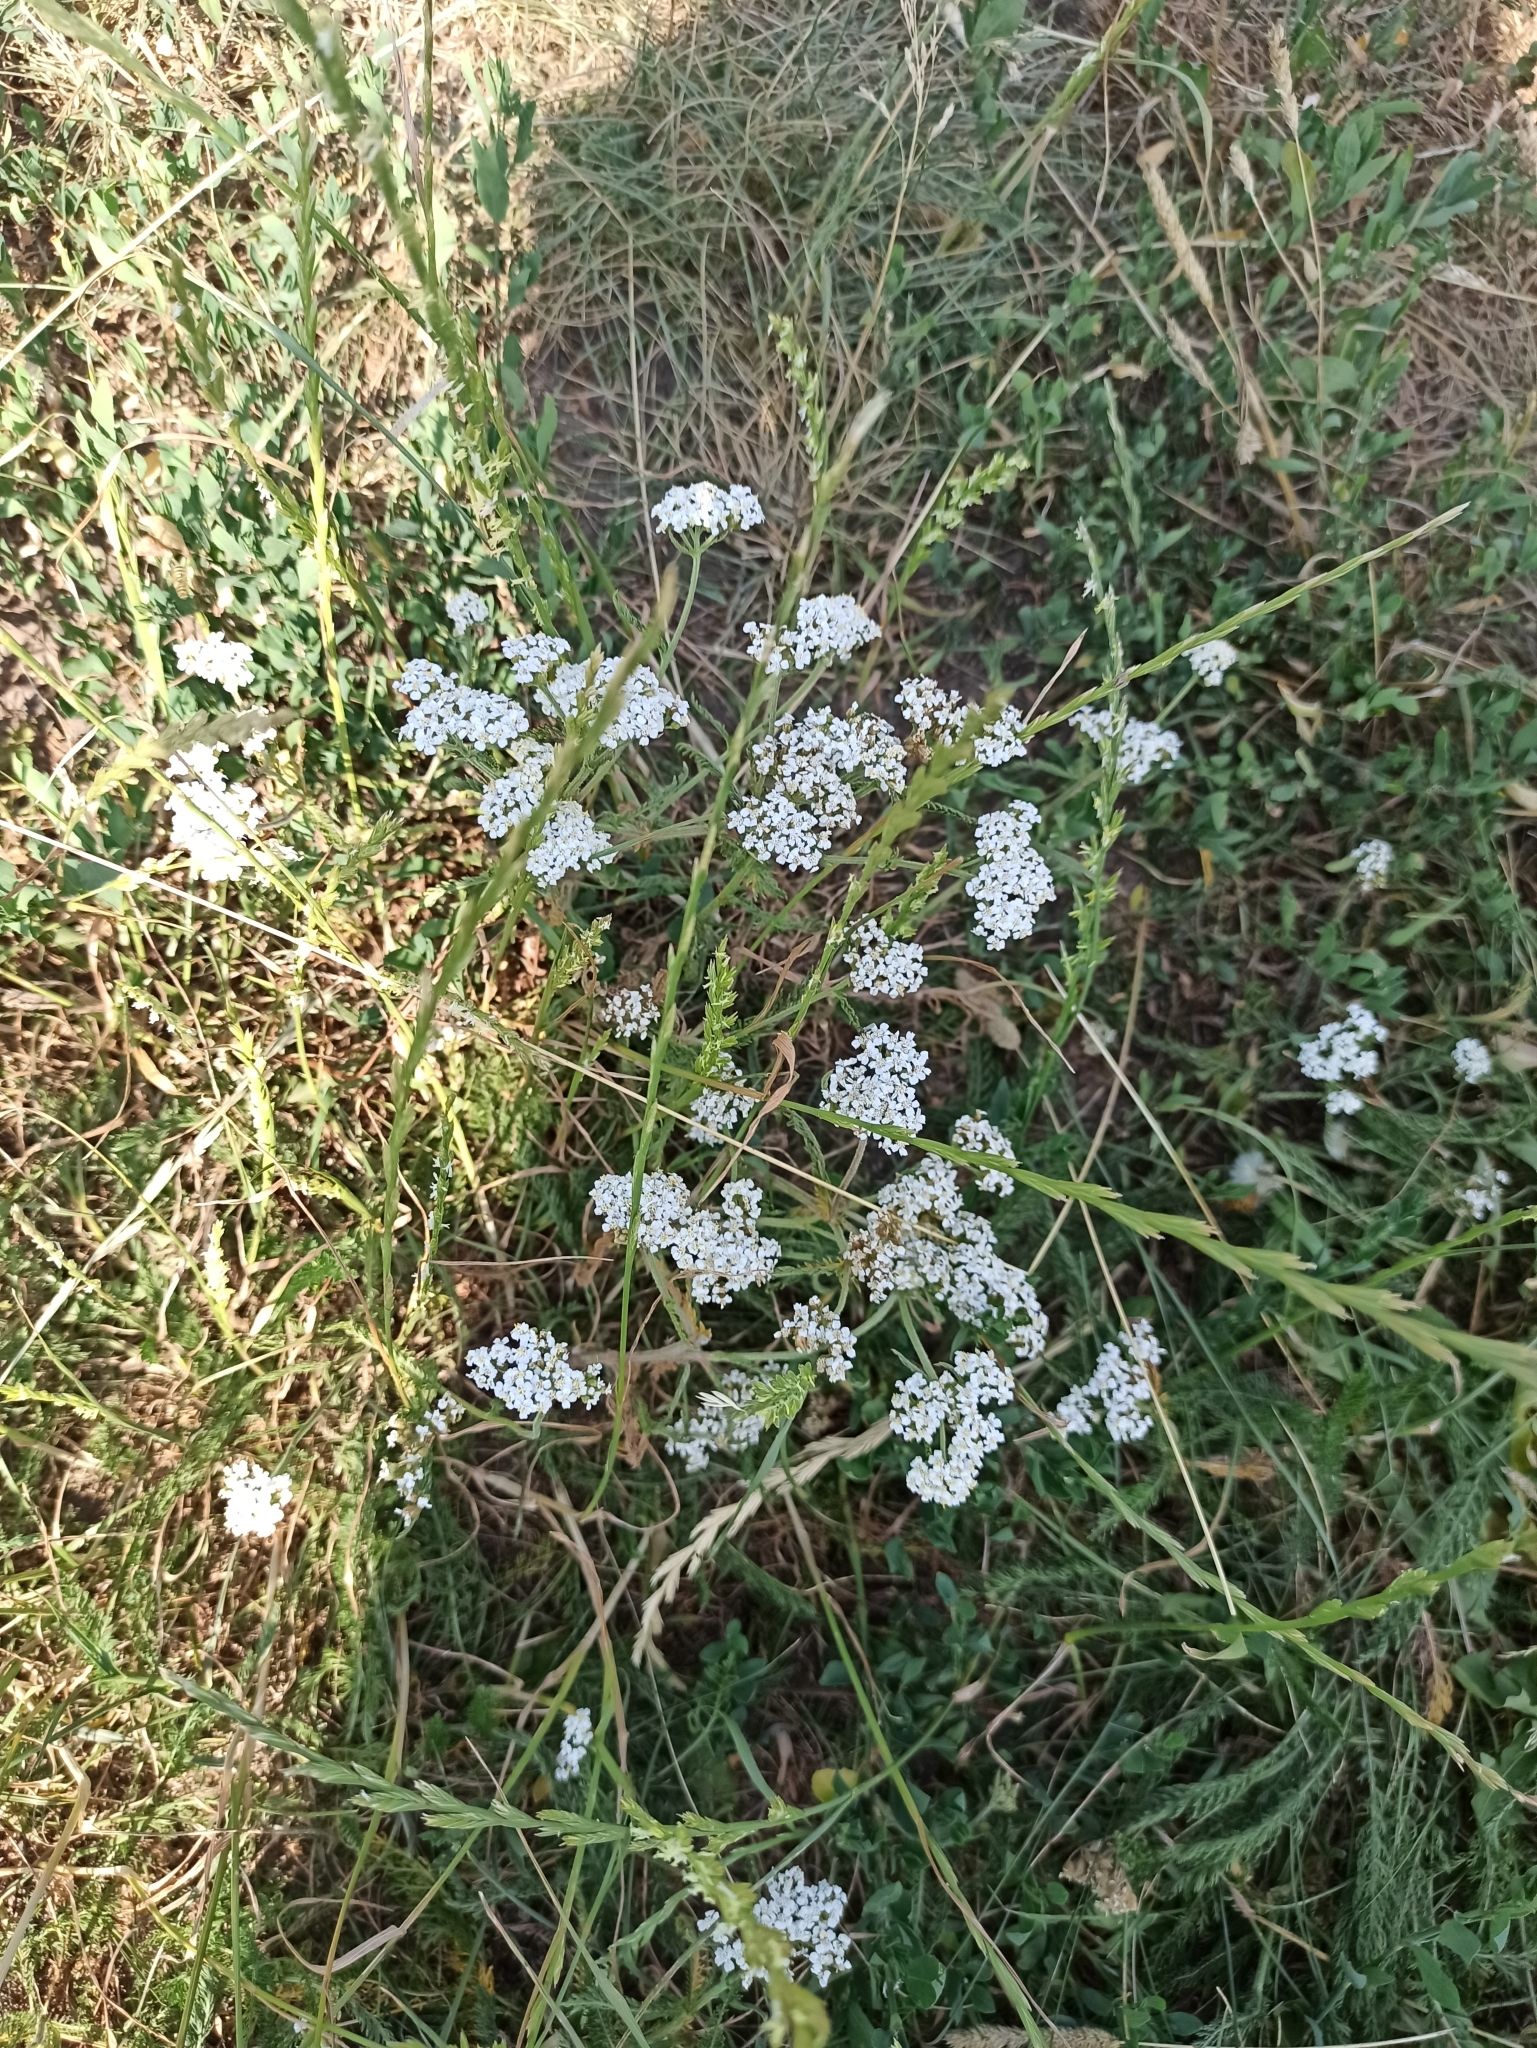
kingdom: Plantae
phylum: Tracheophyta
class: Magnoliopsida
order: Asterales
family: Asteraceae
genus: Achillea
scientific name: Achillea millefolium
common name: Yarrow
